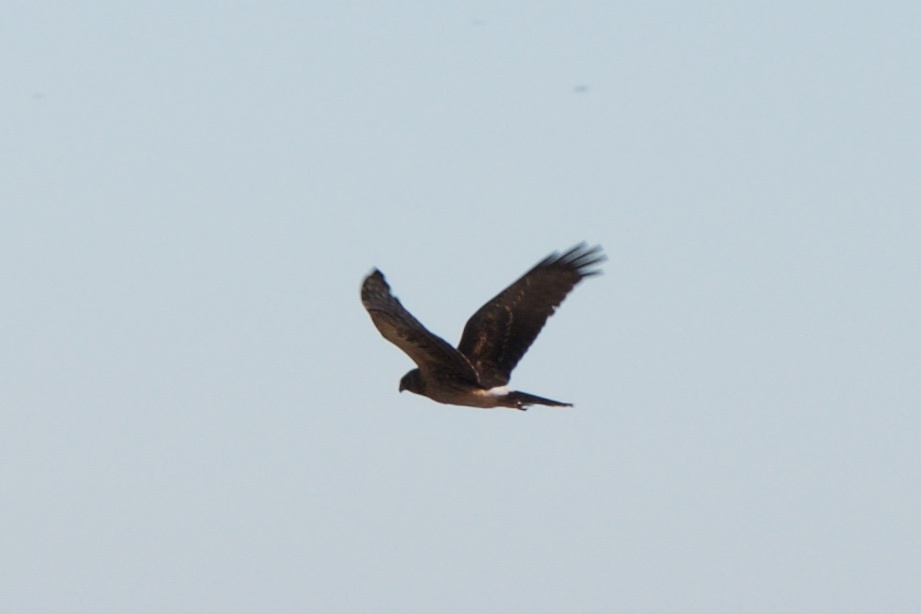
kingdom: Animalia
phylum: Chordata
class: Aves
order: Accipitriformes
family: Accipitridae
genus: Circus
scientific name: Circus cyaneus
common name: Hen harrier
